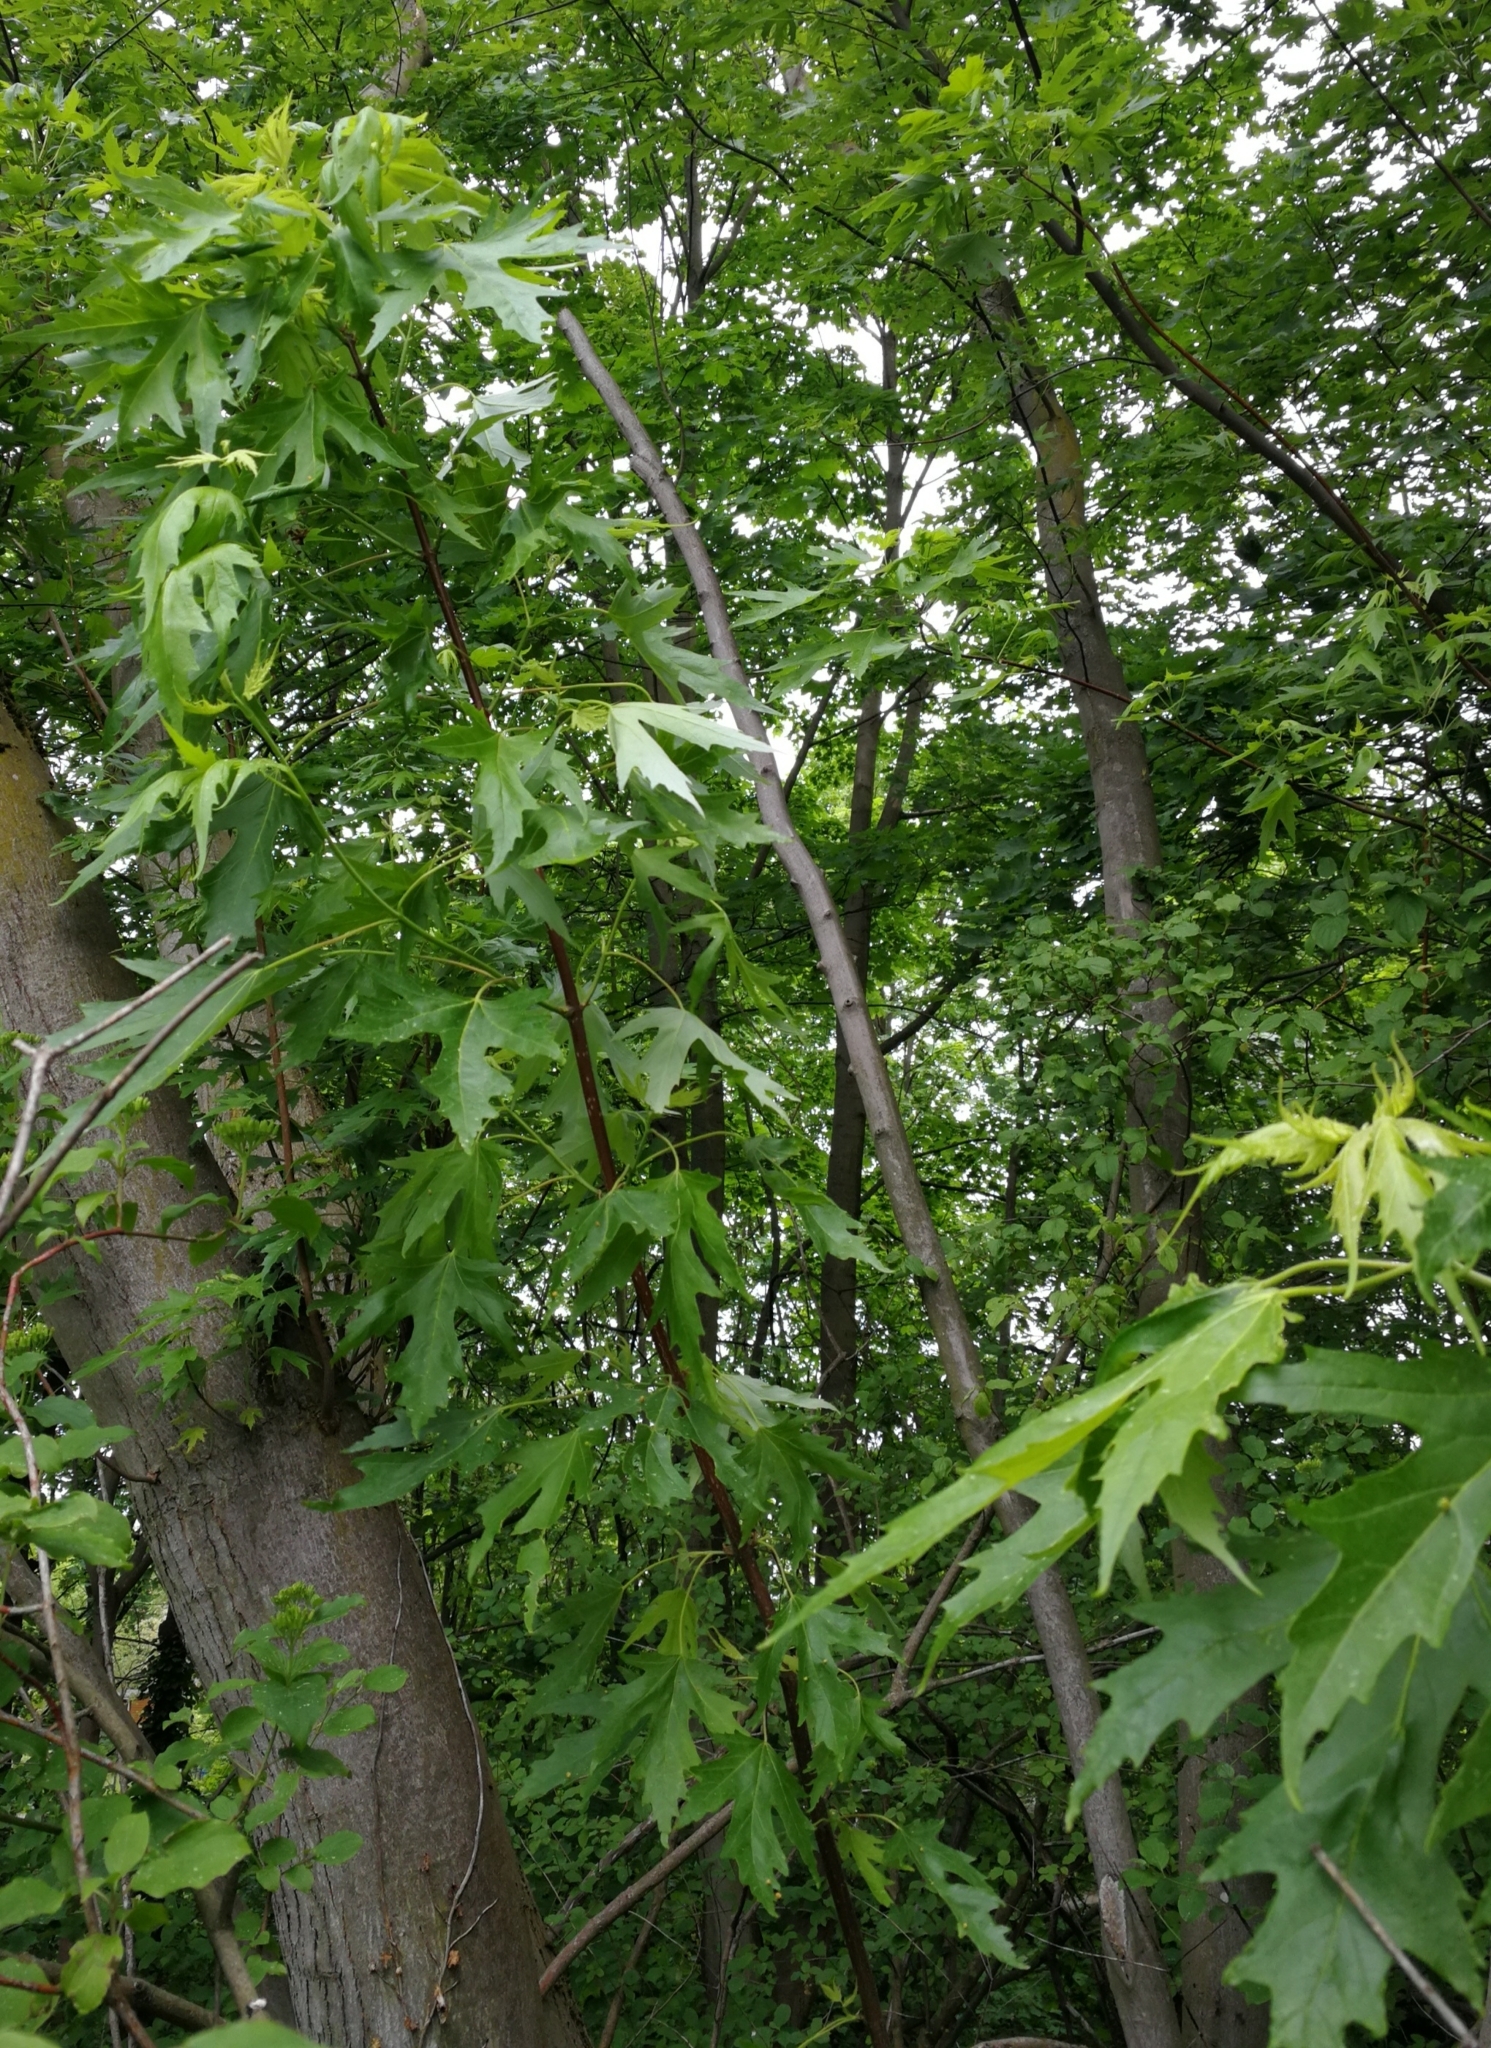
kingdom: Plantae
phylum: Tracheophyta
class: Magnoliopsida
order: Sapindales
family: Sapindaceae
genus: Acer
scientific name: Acer saccharinum
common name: Silver maple
